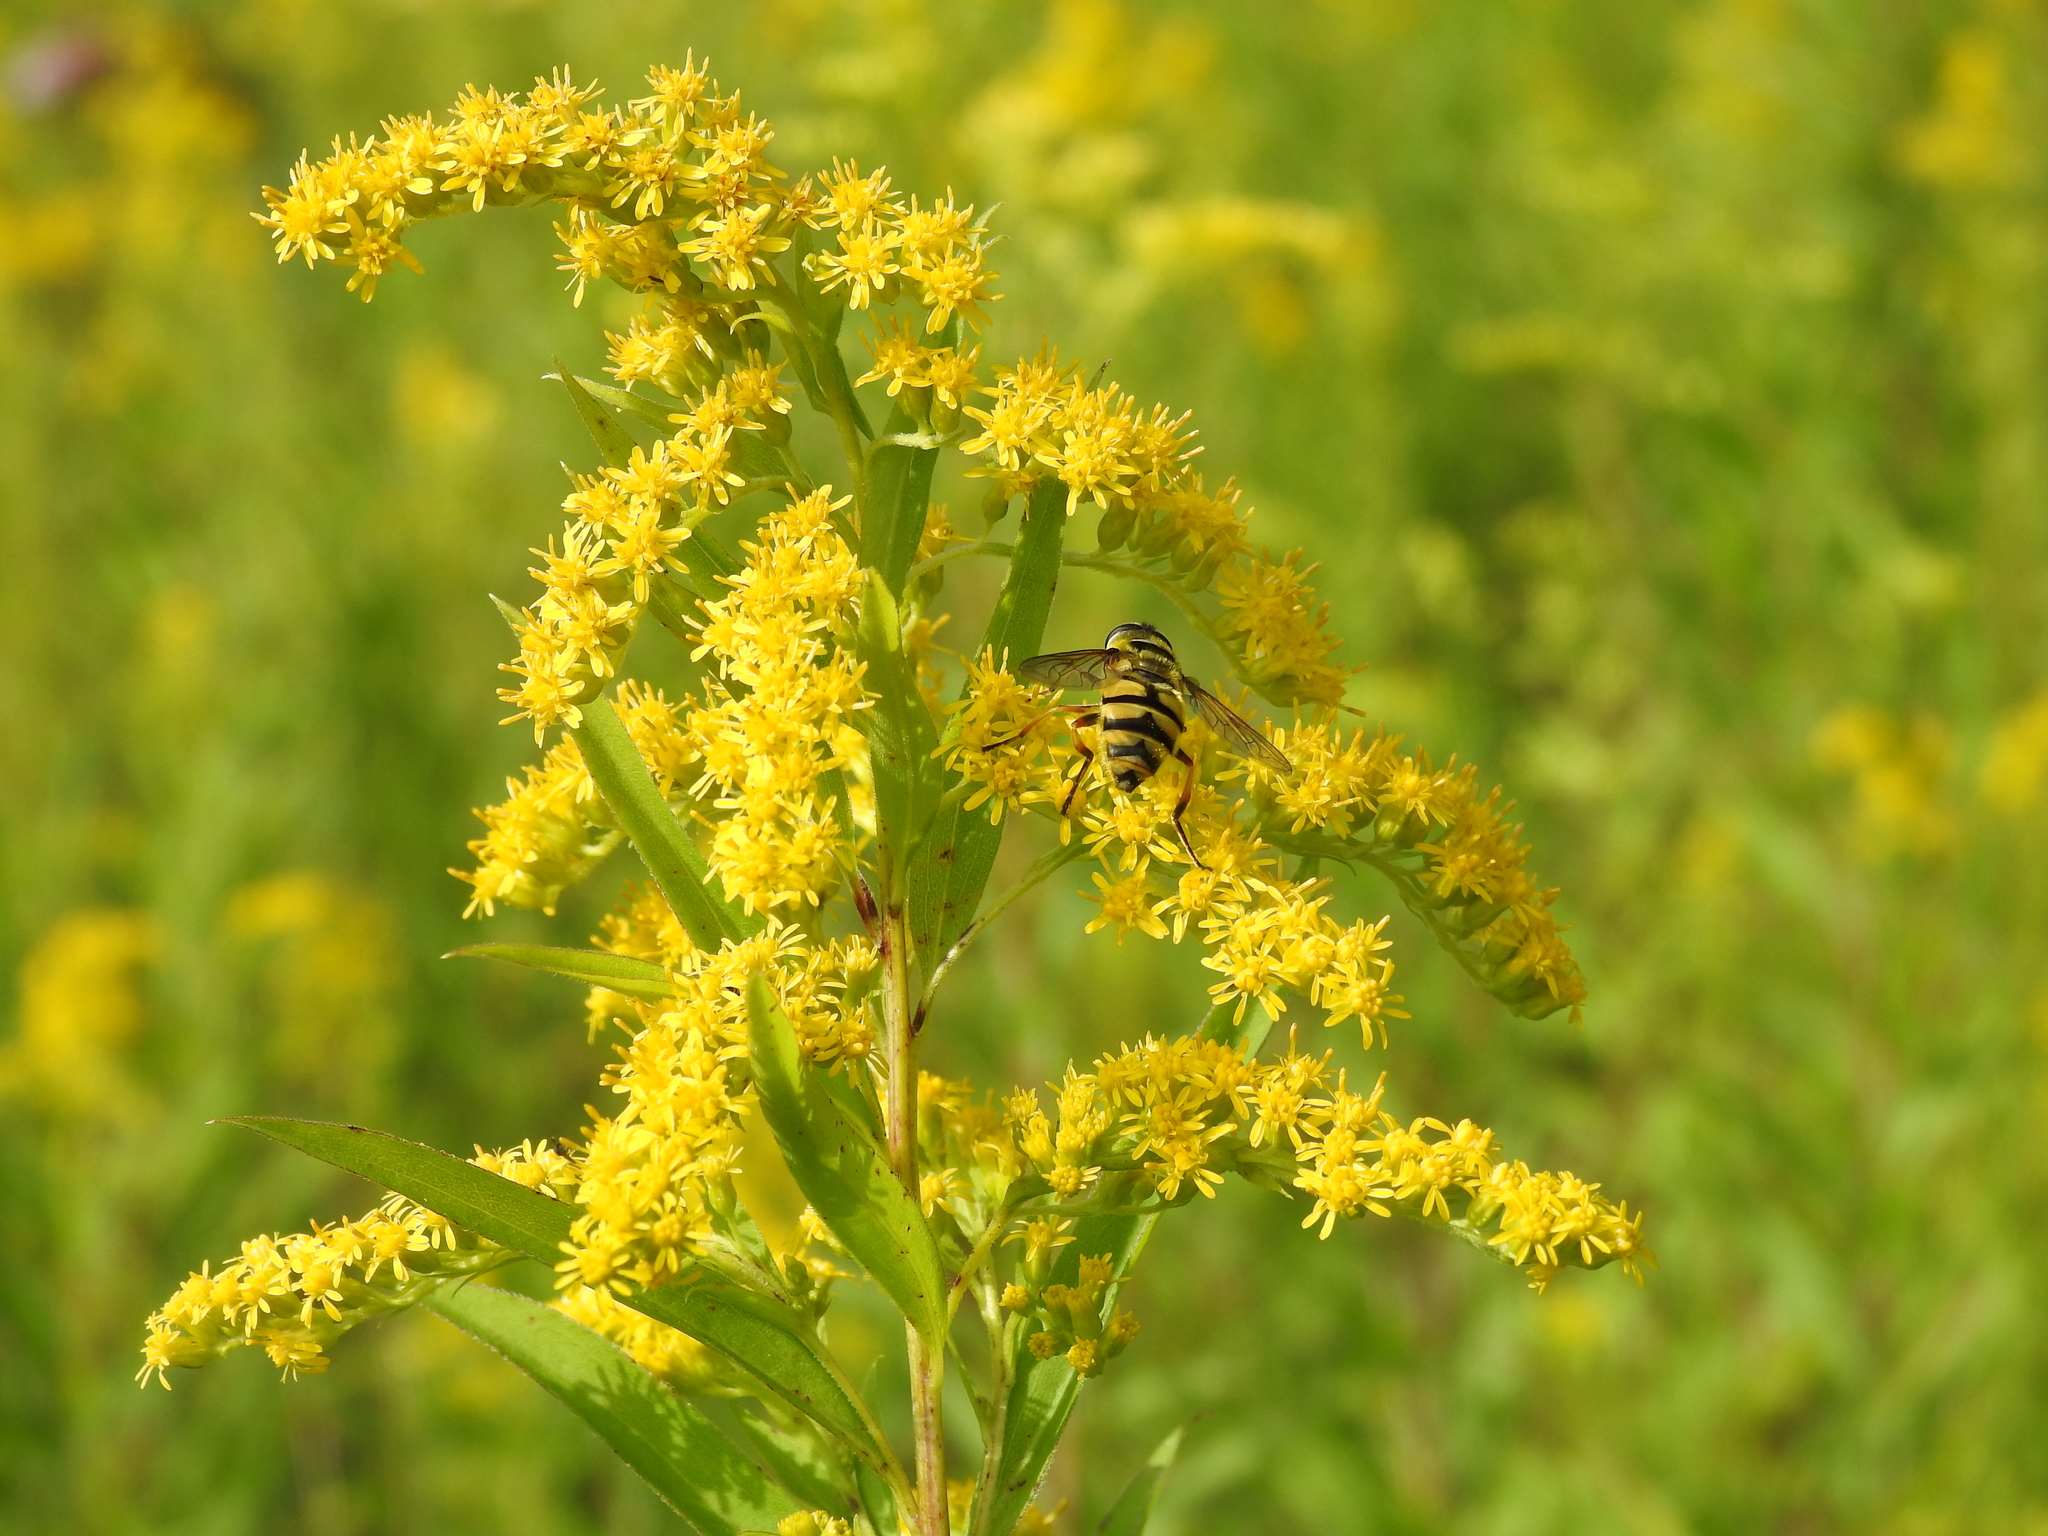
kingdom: Animalia
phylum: Arthropoda
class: Insecta
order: Diptera
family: Syrphidae
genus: Myathropa
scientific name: Myathropa florea
